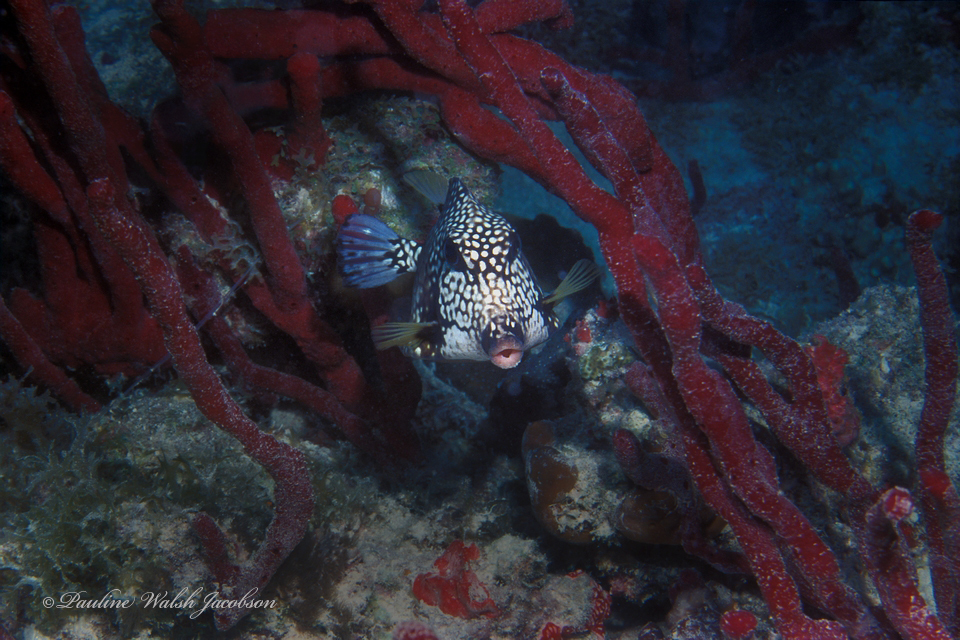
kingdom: Animalia
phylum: Chordata
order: Tetraodontiformes
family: Ostraciidae
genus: Lactophrys
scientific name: Lactophrys triqueter
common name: Smooth trunkfish
